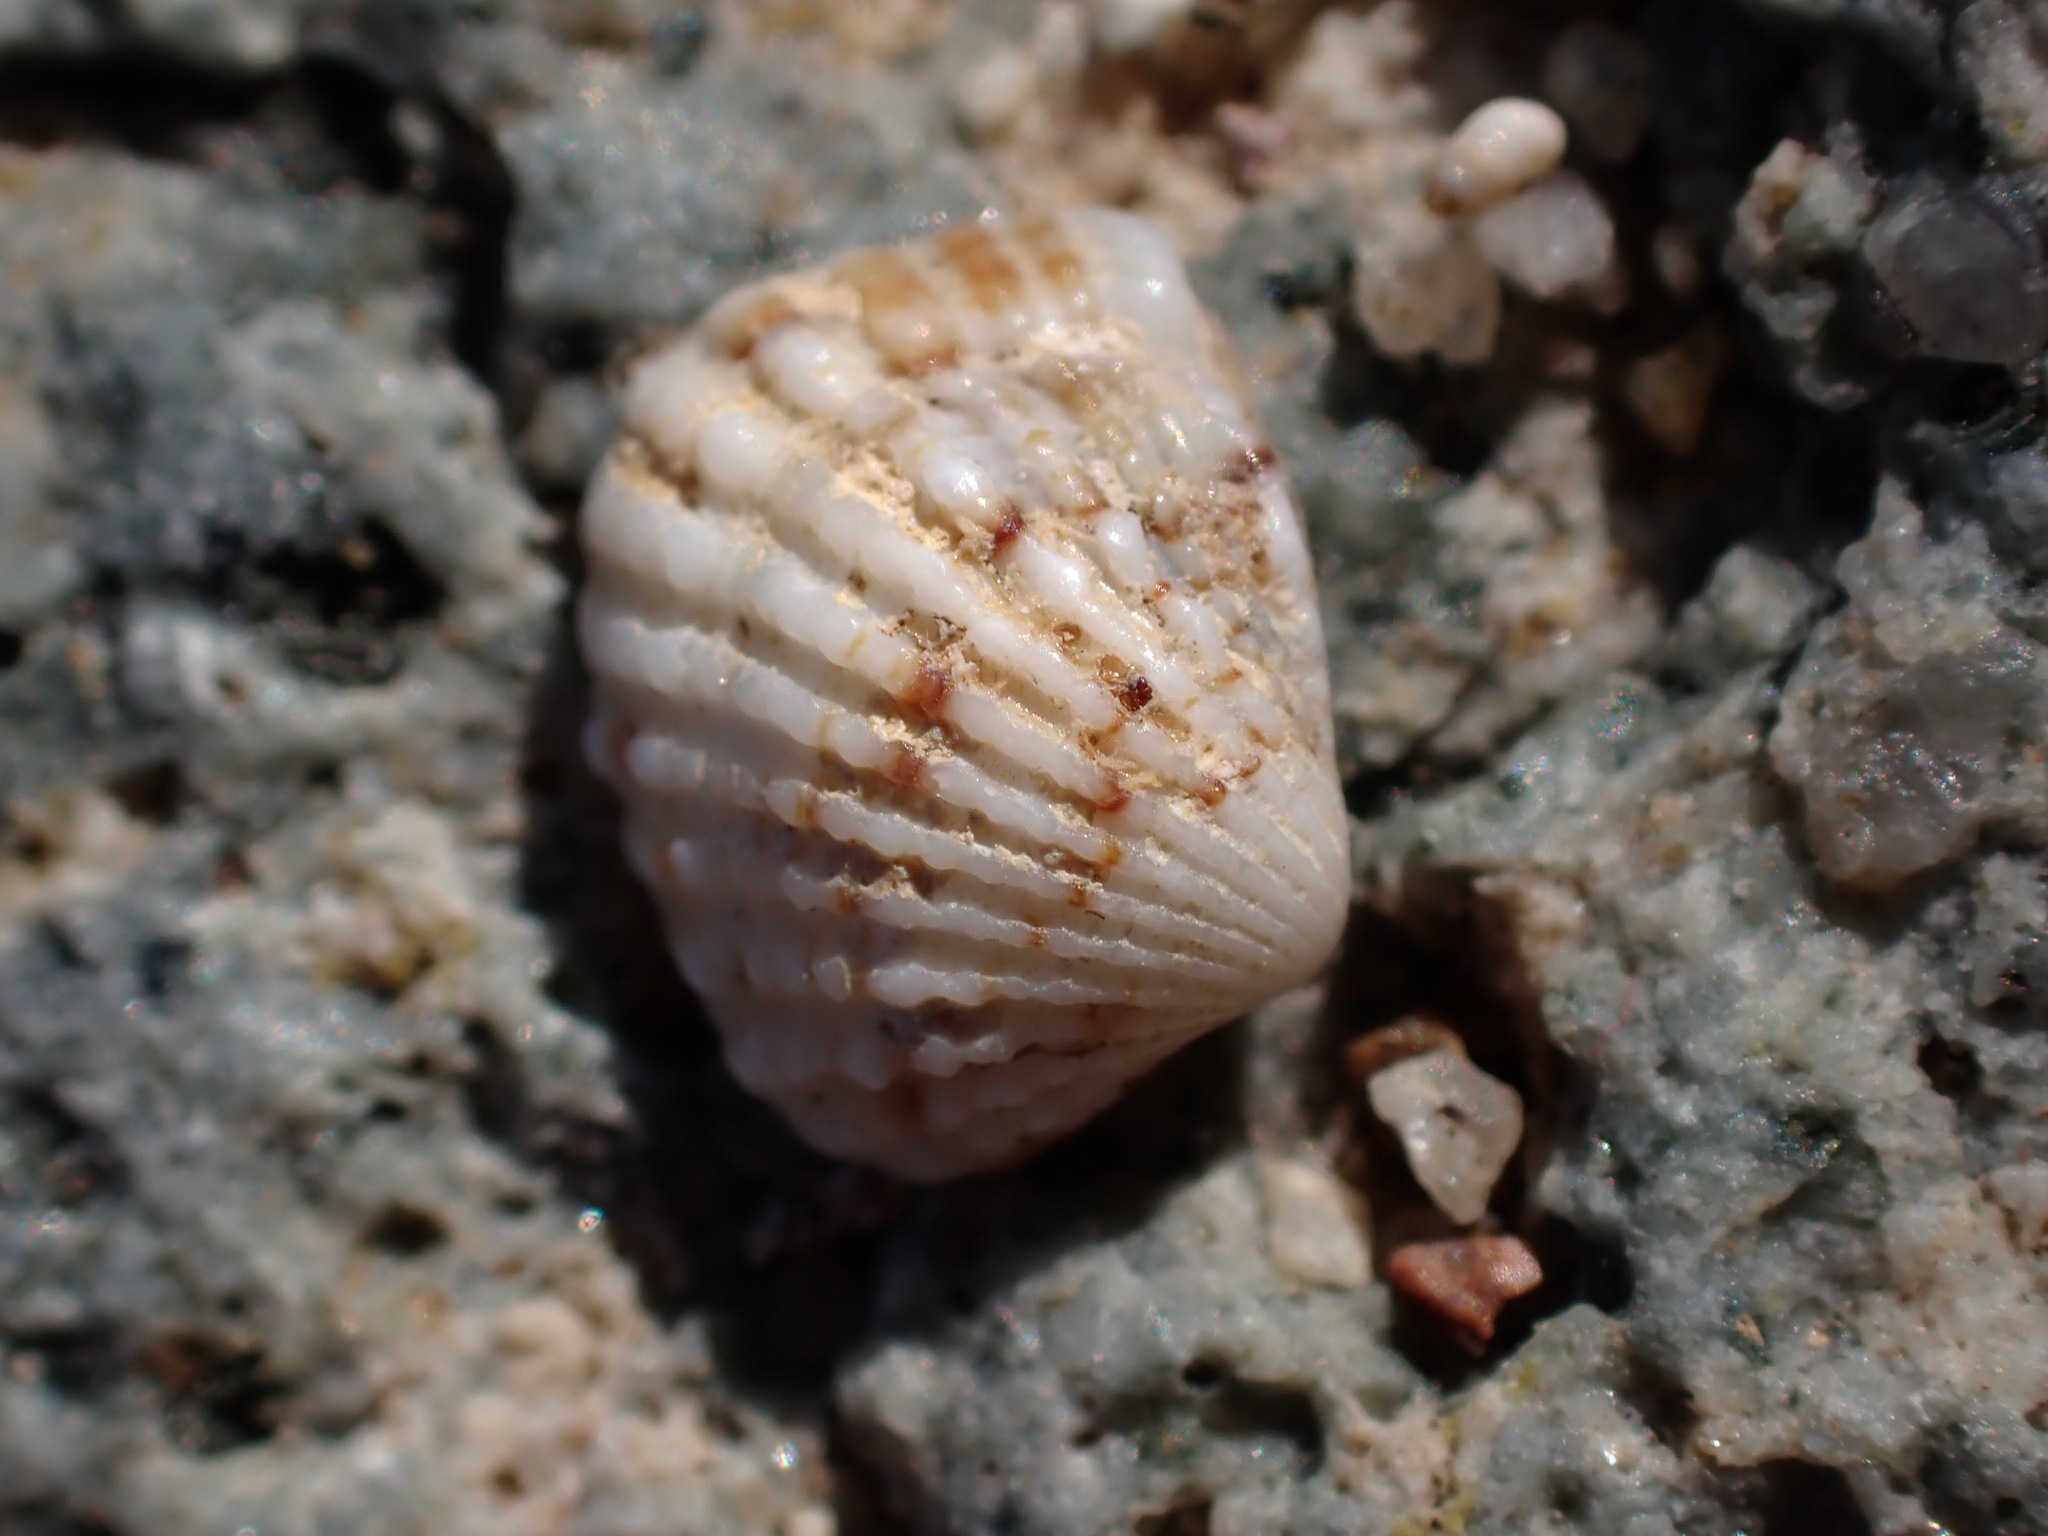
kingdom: Animalia
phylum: Mollusca
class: Bivalvia
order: Carditida
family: Carditidae
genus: Glans
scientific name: Glans trapezia
